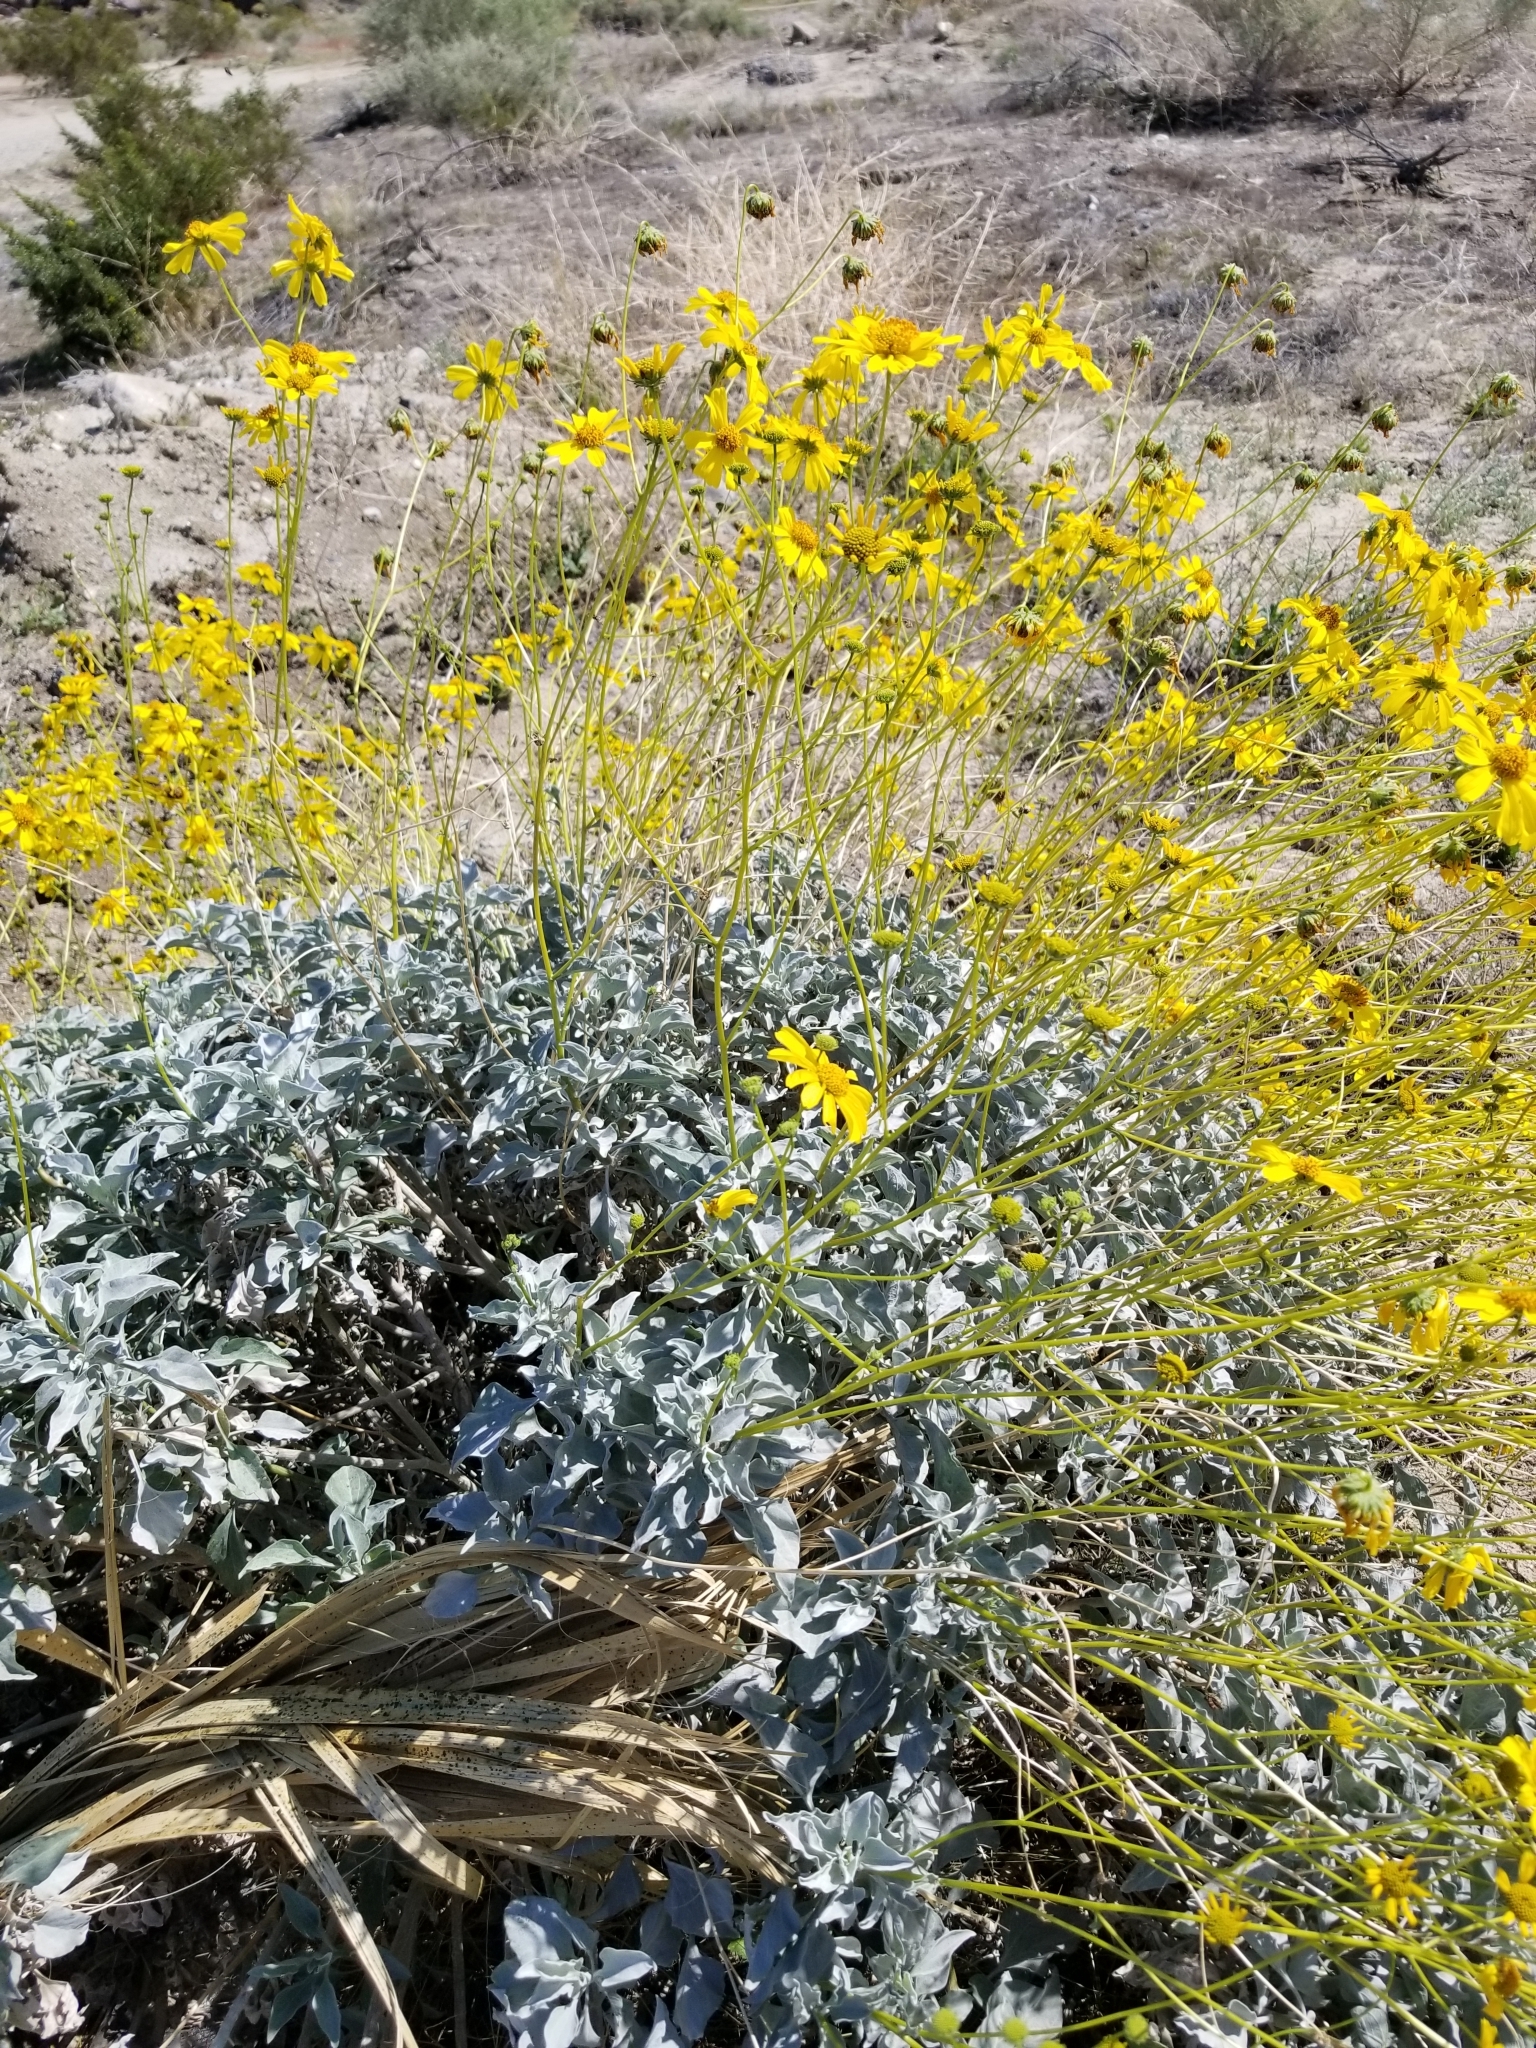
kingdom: Plantae
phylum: Tracheophyta
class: Magnoliopsida
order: Asterales
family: Asteraceae
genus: Encelia
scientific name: Encelia farinosa
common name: Brittlebush
